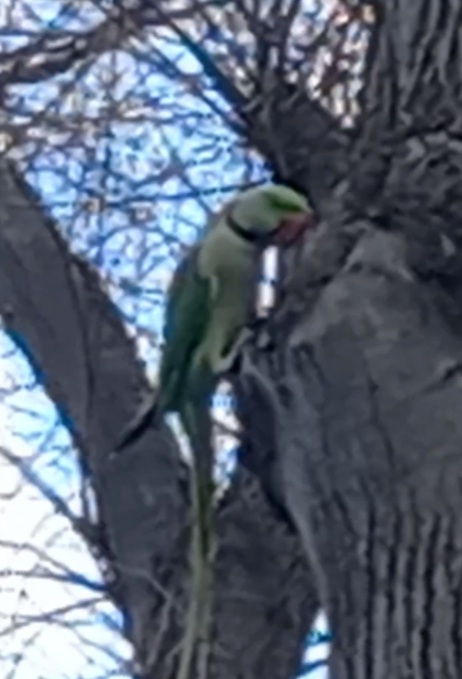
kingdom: Animalia
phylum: Chordata
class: Aves
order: Psittaciformes
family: Psittacidae
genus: Psittacula
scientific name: Psittacula eupatria
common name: Alexandrine parakeet
